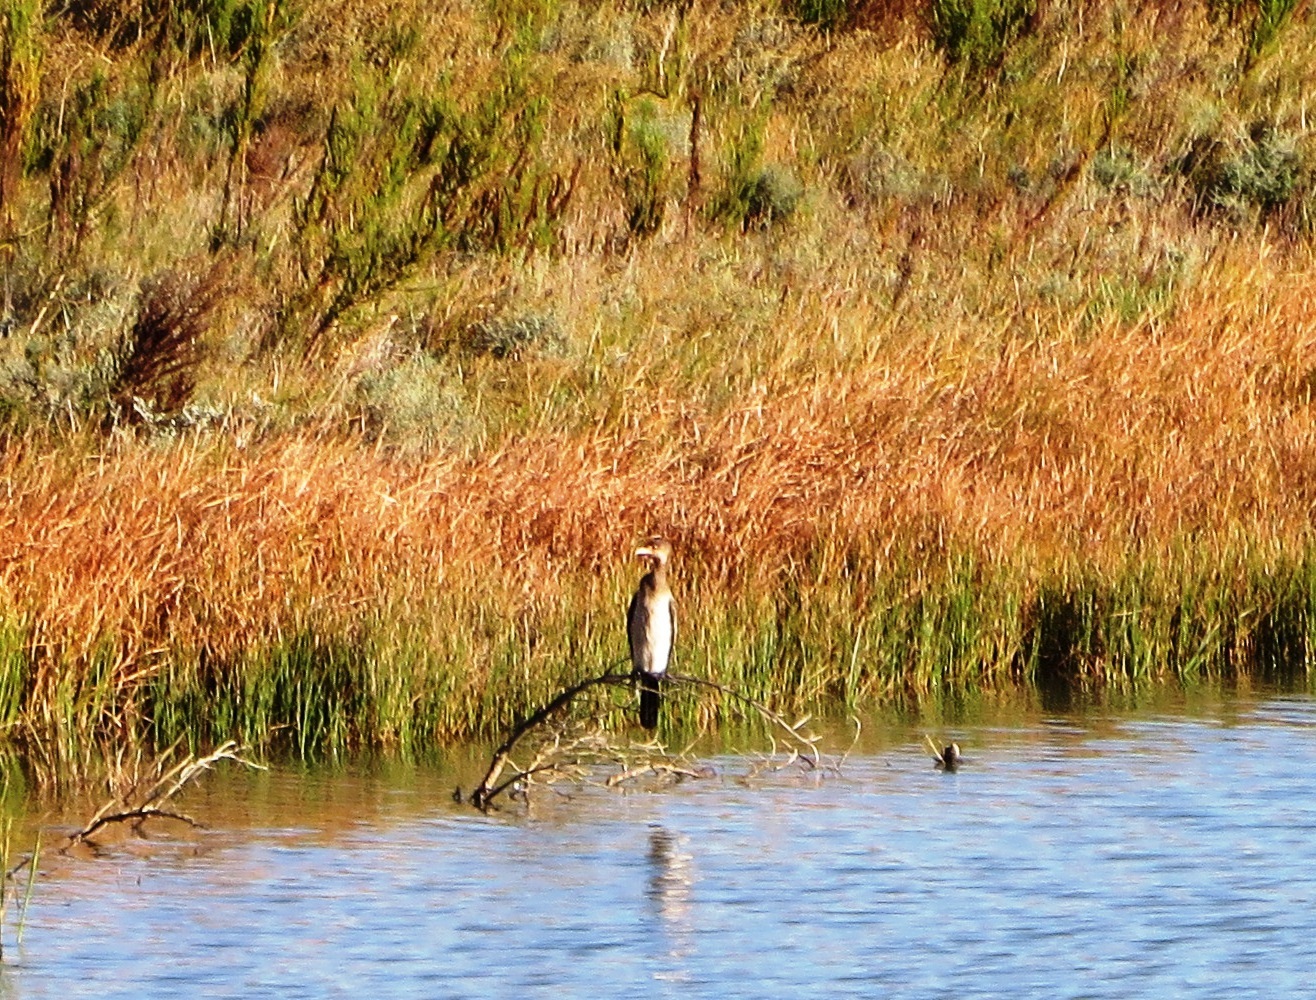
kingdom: Animalia
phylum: Chordata
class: Aves
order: Suliformes
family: Phalacrocoracidae
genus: Microcarbo
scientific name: Microcarbo africanus
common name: Long-tailed cormorant
